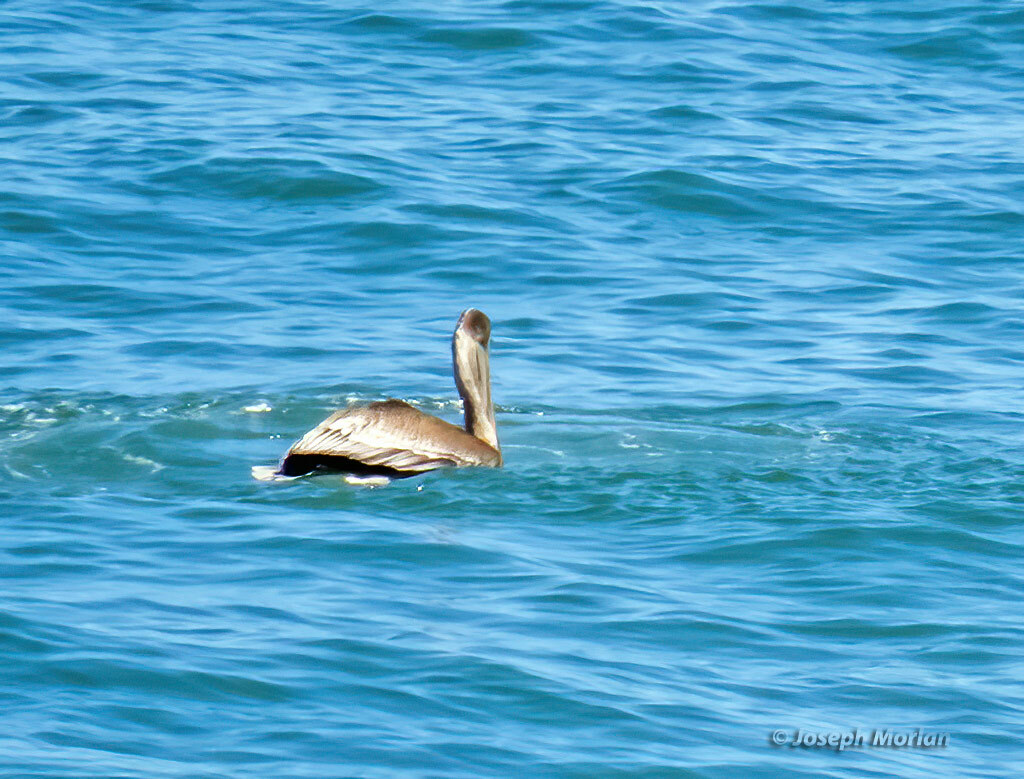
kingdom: Animalia
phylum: Chordata
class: Aves
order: Pelecaniformes
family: Pelecanidae
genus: Pelecanus
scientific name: Pelecanus occidentalis
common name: Brown pelican
